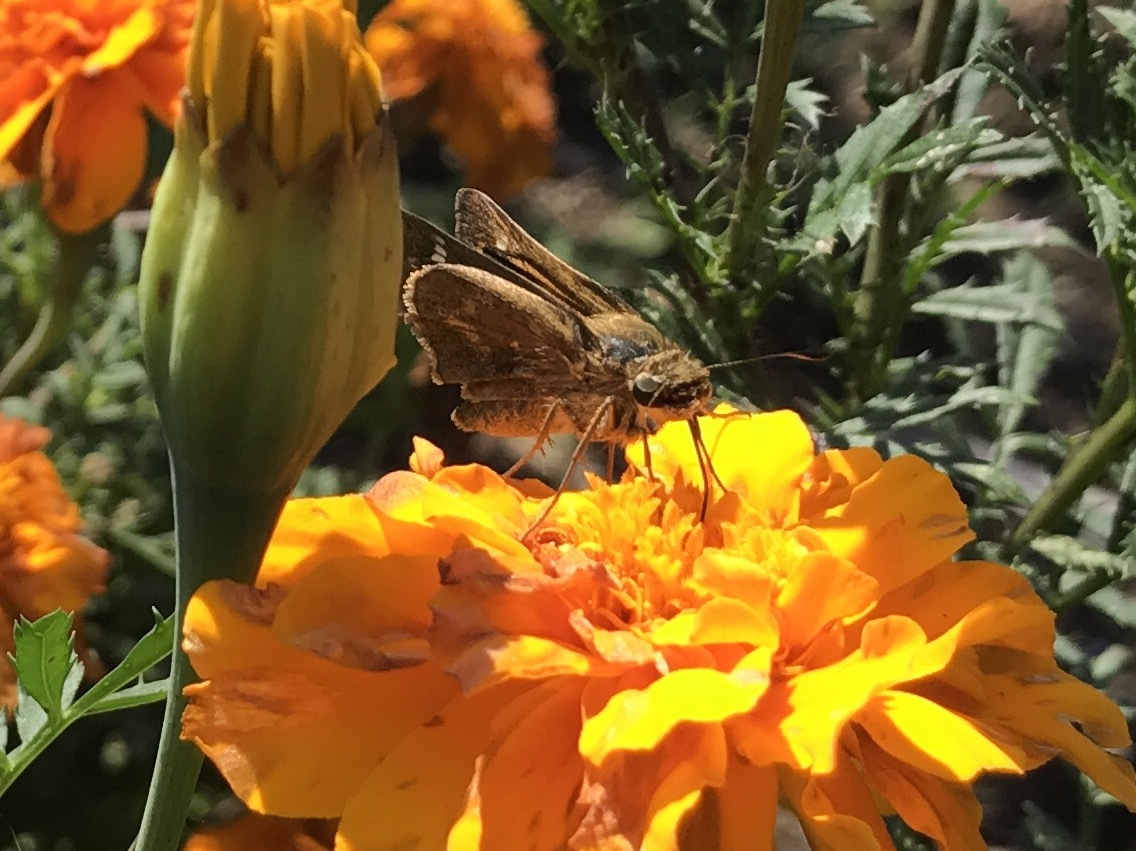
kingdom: Animalia
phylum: Arthropoda
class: Insecta
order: Lepidoptera
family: Hesperiidae
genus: Atalopedes
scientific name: Atalopedes
